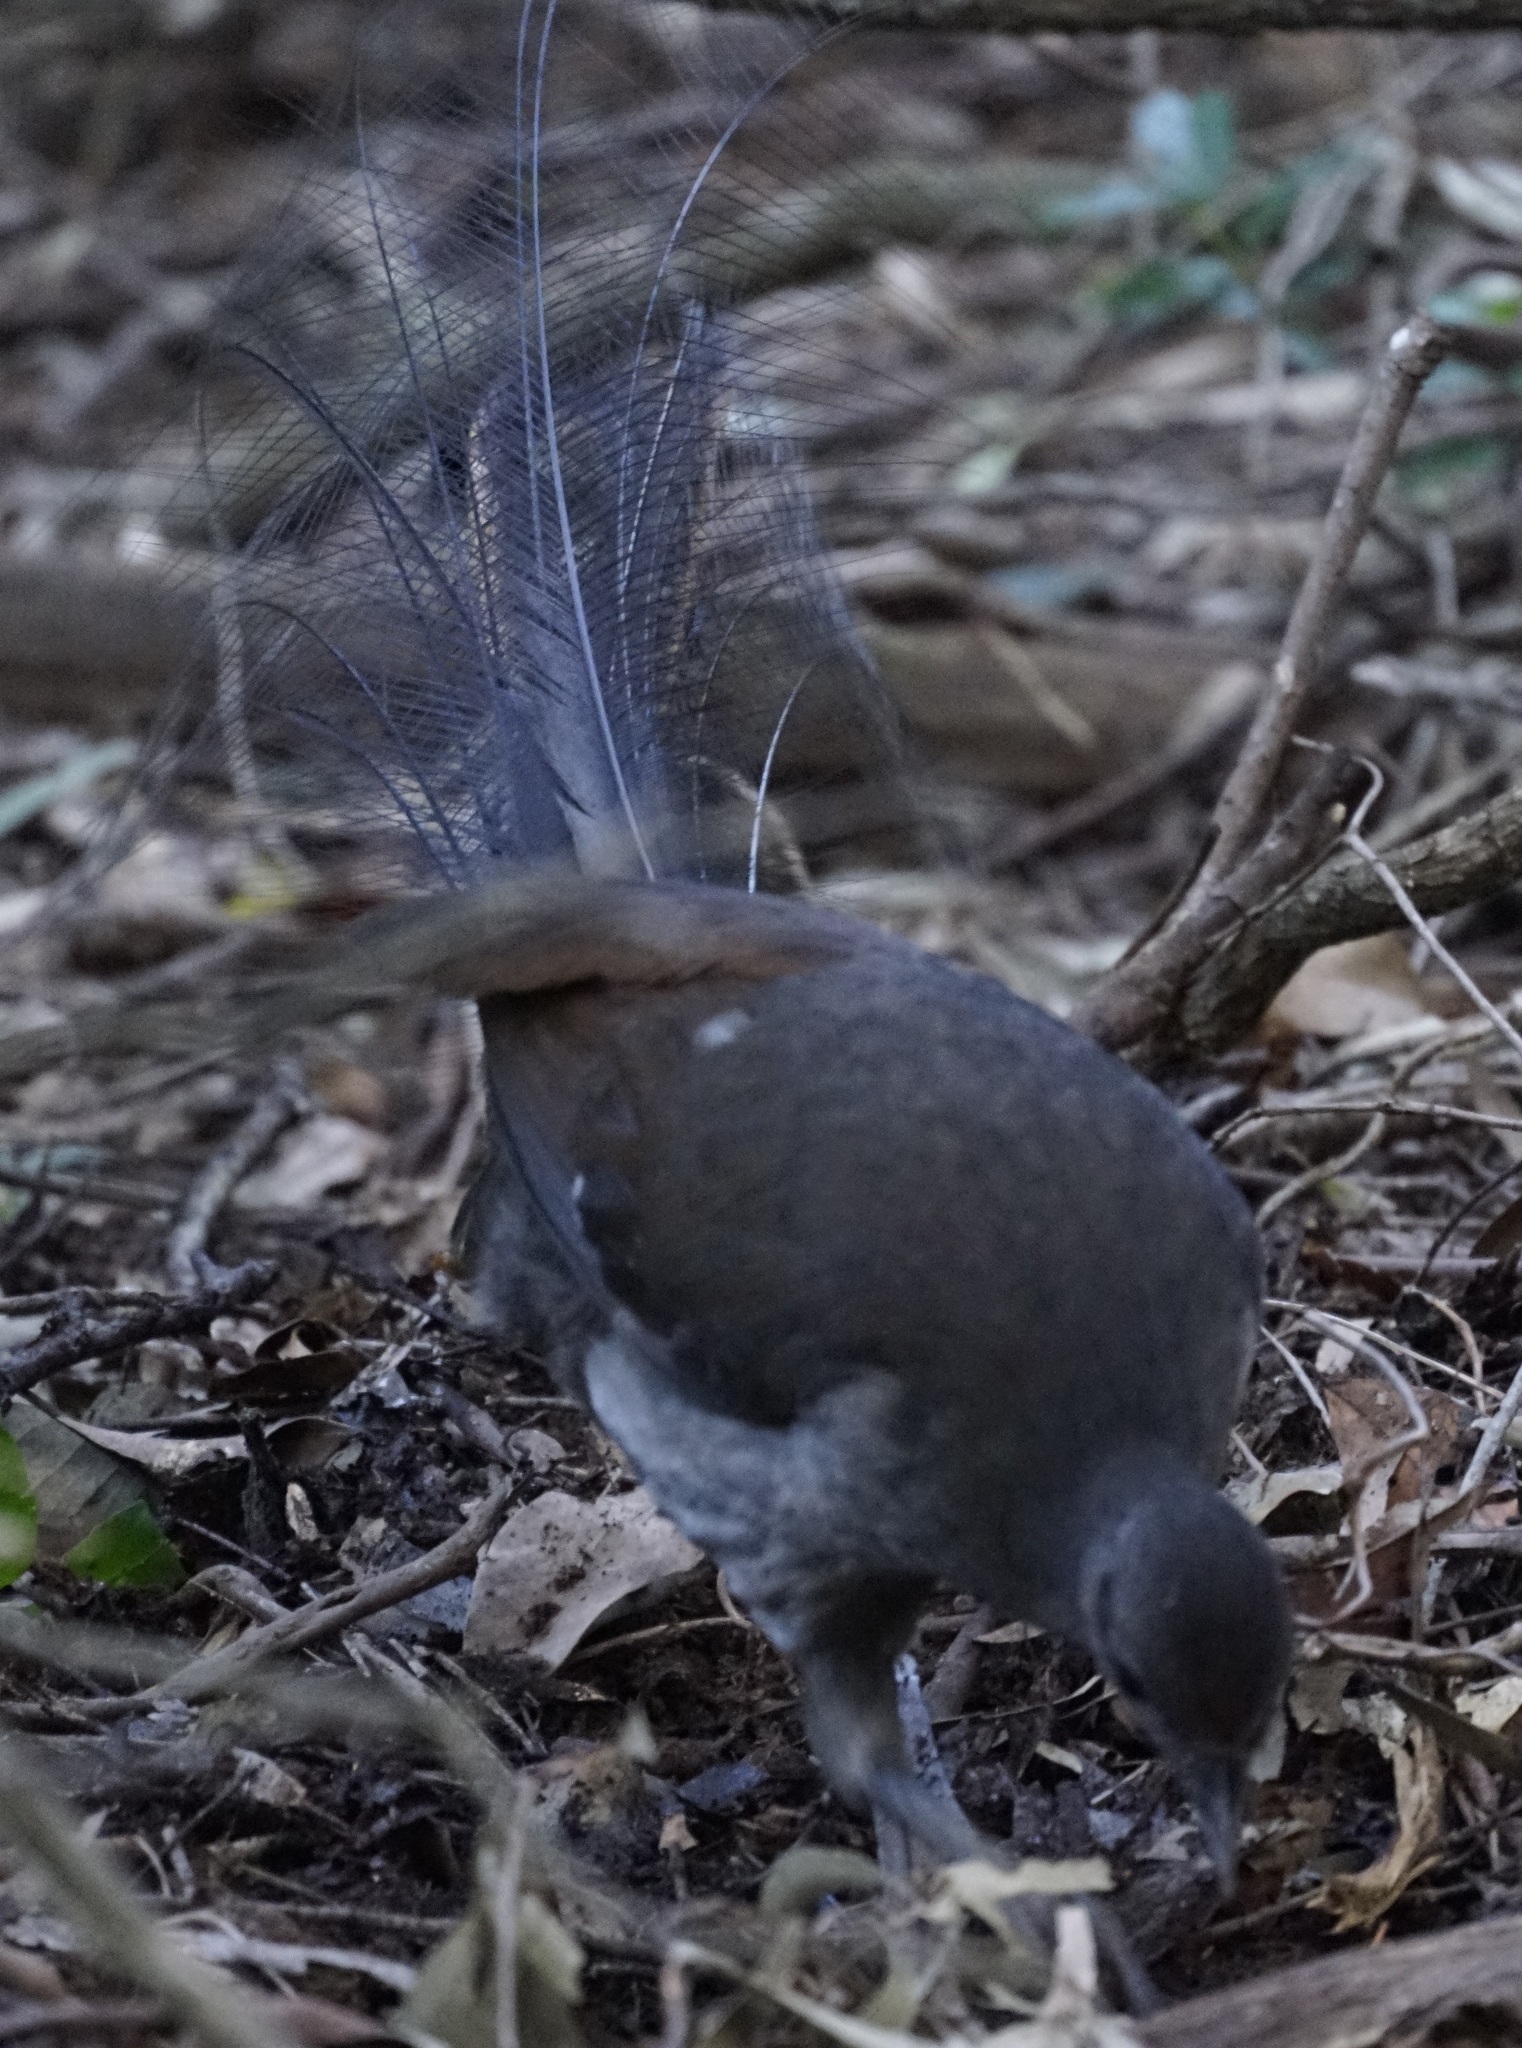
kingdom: Animalia
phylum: Chordata
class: Aves
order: Passeriformes
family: Menuridae
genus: Menura
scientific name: Menura novaehollandiae
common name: Superb lyrebird
